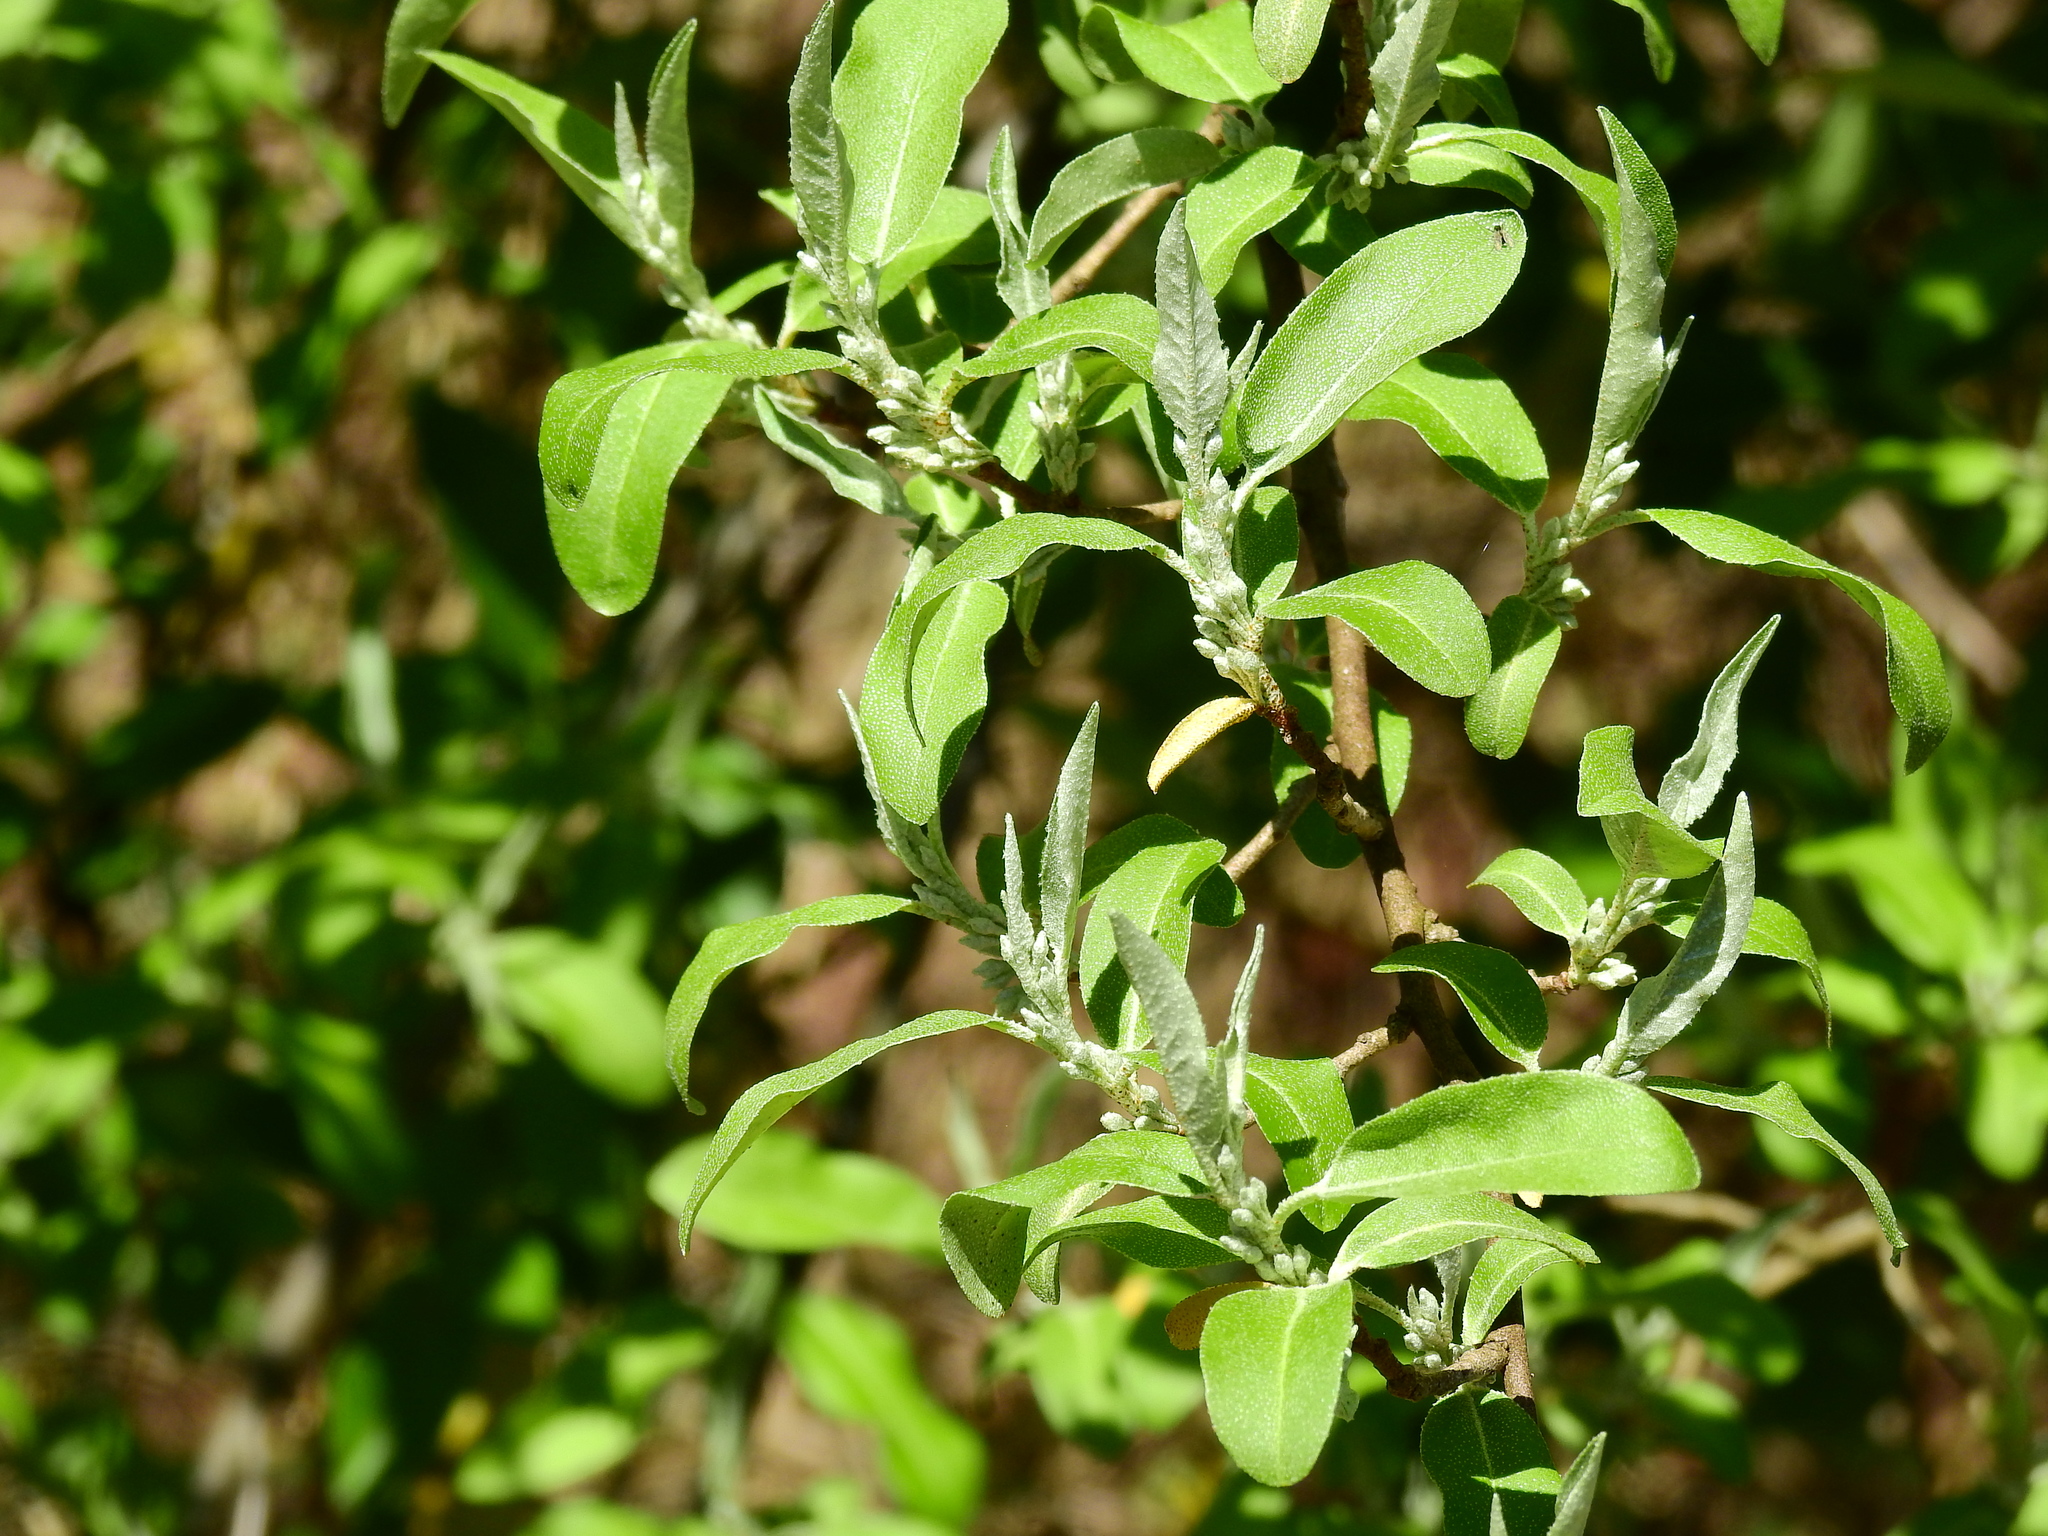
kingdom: Plantae
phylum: Tracheophyta
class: Magnoliopsida
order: Rosales
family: Elaeagnaceae
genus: Elaeagnus
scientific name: Elaeagnus umbellata
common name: Autumn olive
